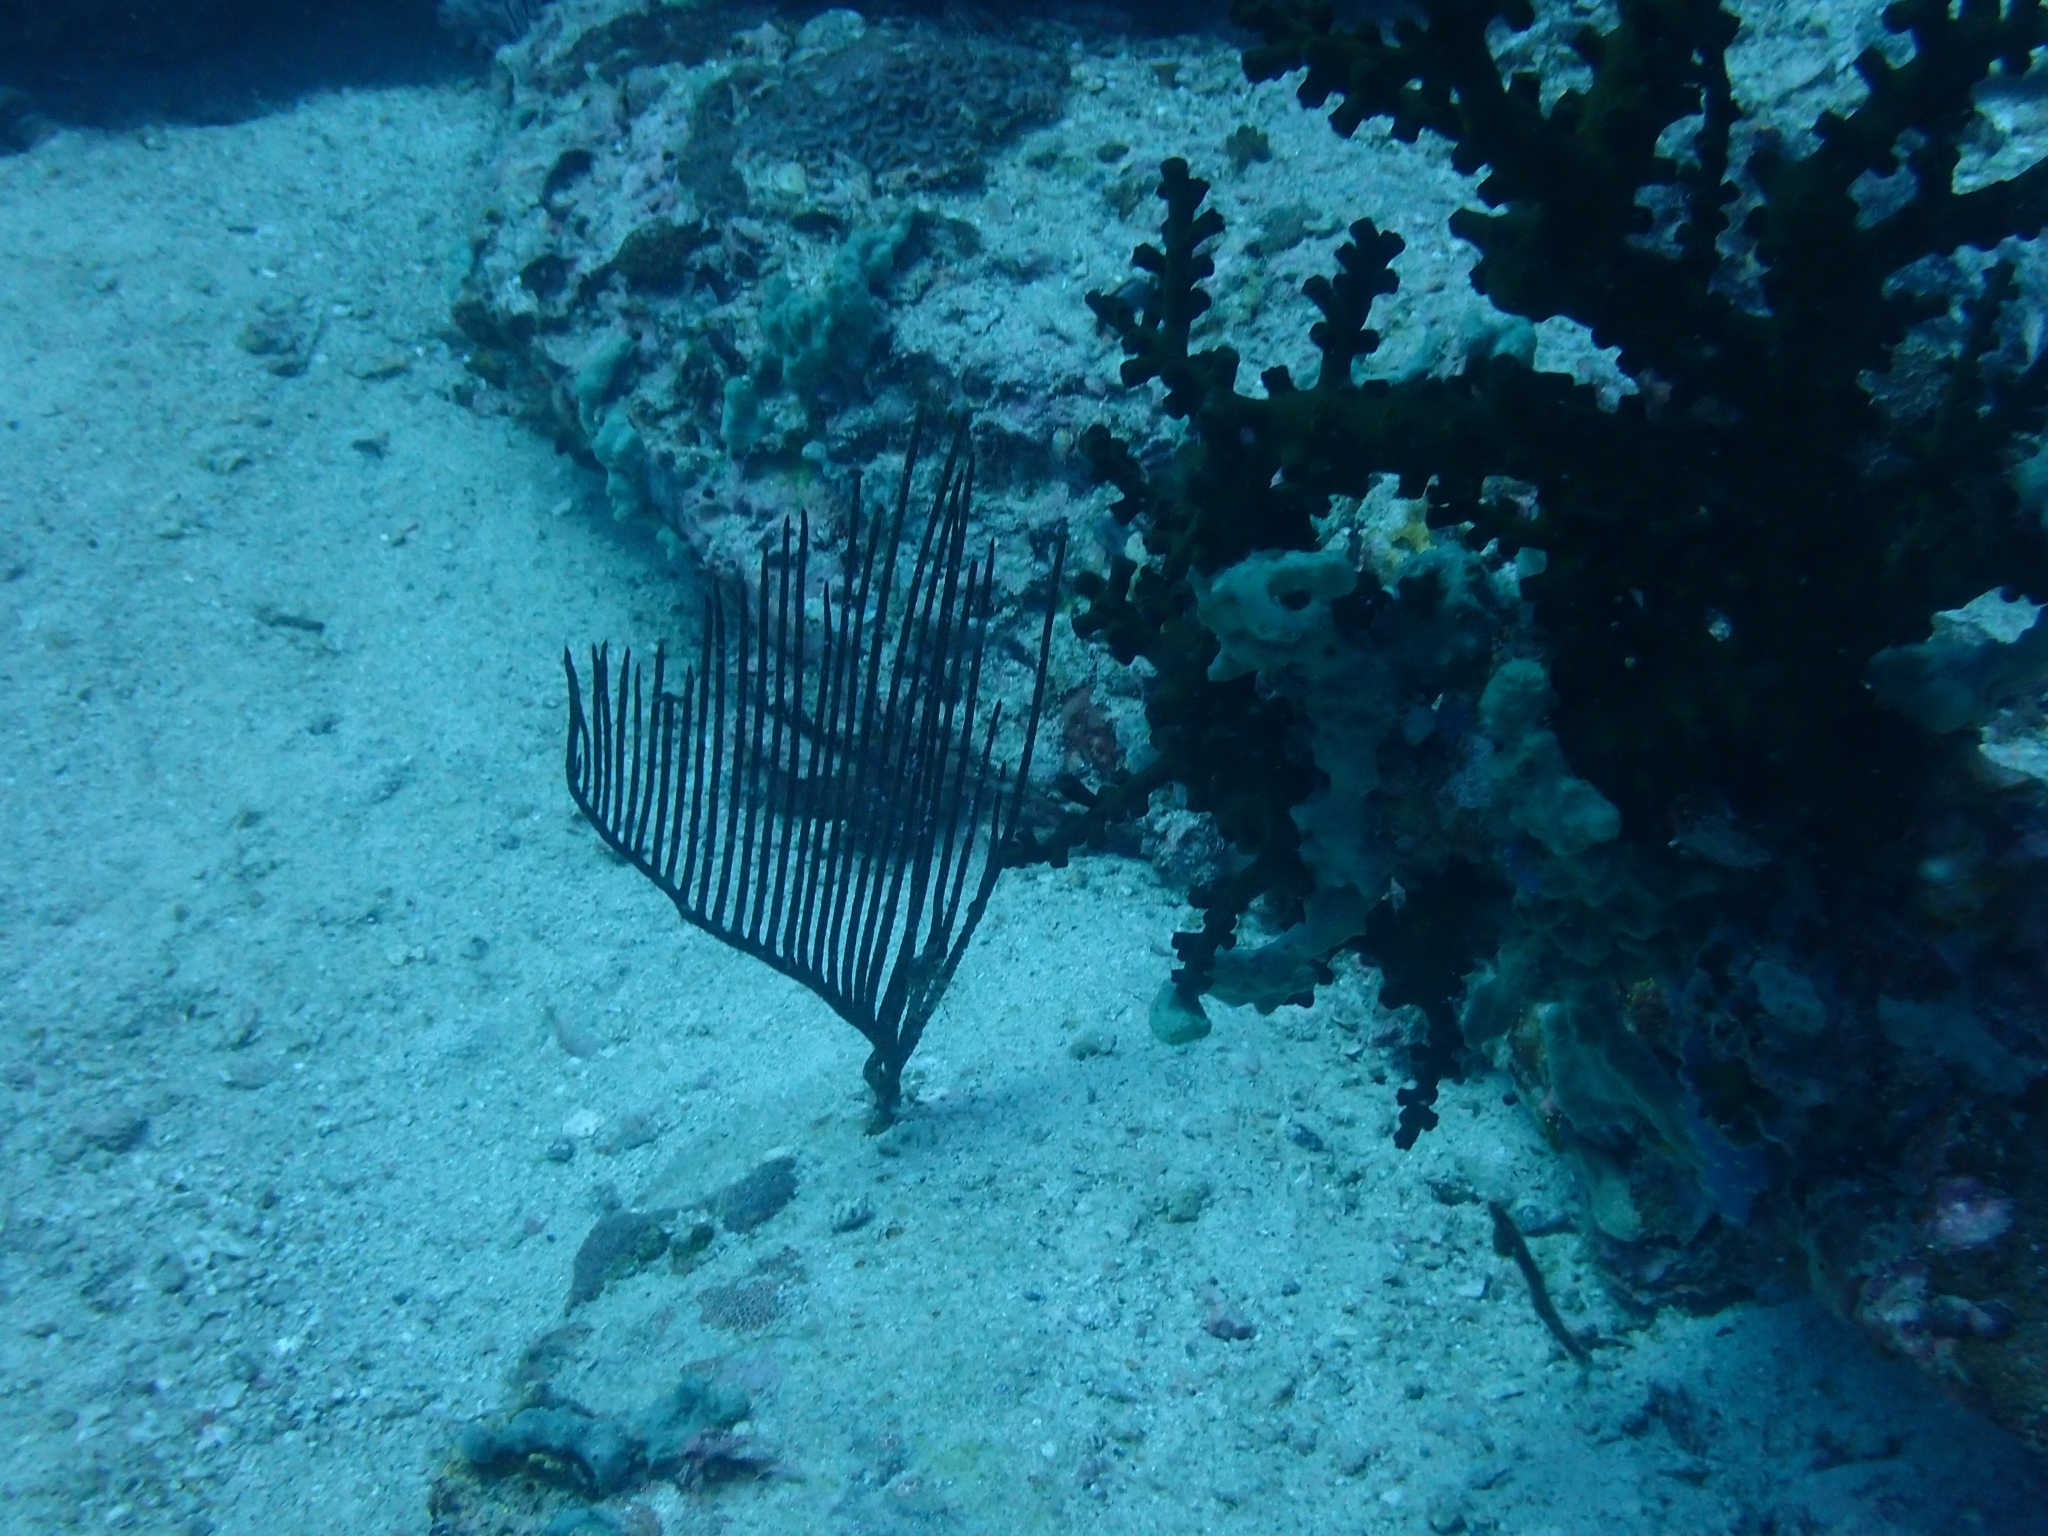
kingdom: Animalia
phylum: Cnidaria
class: Anthozoa
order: Scleralcyonacea
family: Ellisellidae
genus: Ctenocella
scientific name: Ctenocella pectinata
